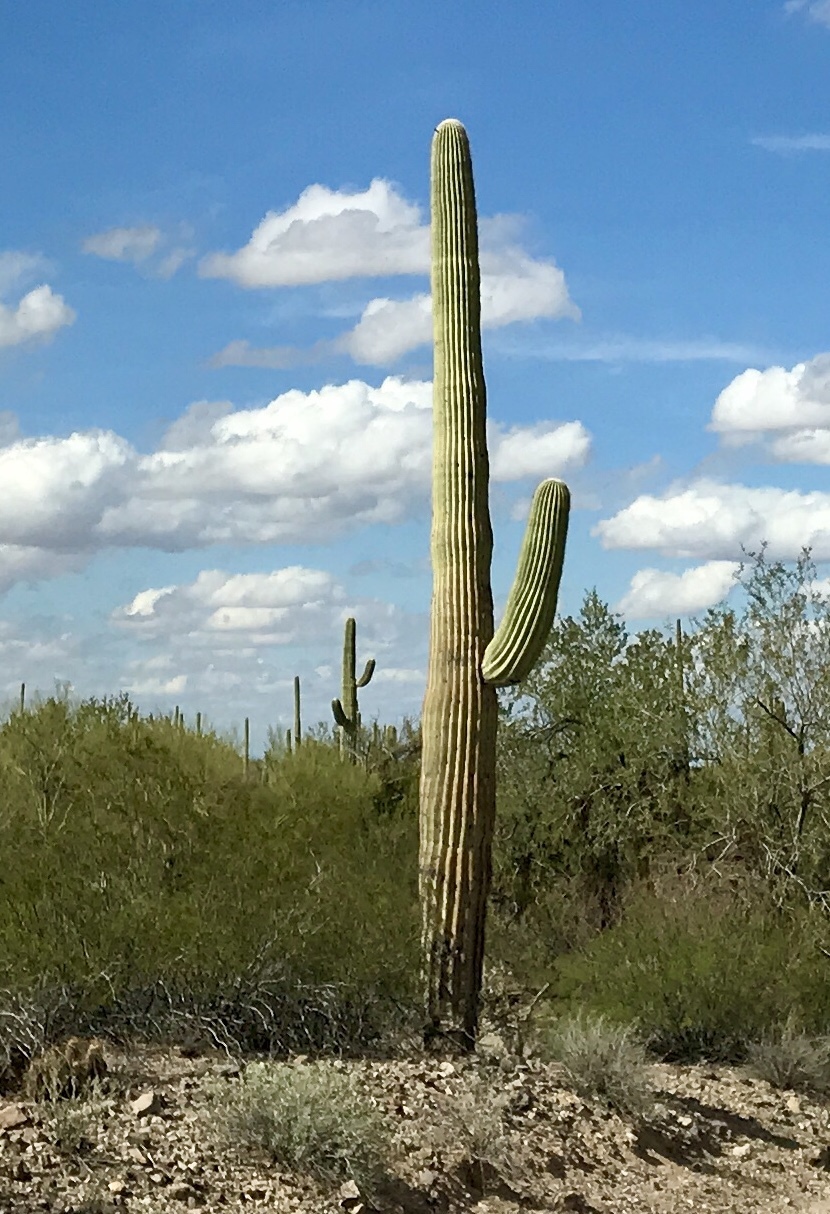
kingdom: Plantae
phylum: Tracheophyta
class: Magnoliopsida
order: Caryophyllales
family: Cactaceae
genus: Carnegiea
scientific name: Carnegiea gigantea
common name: Saguaro
